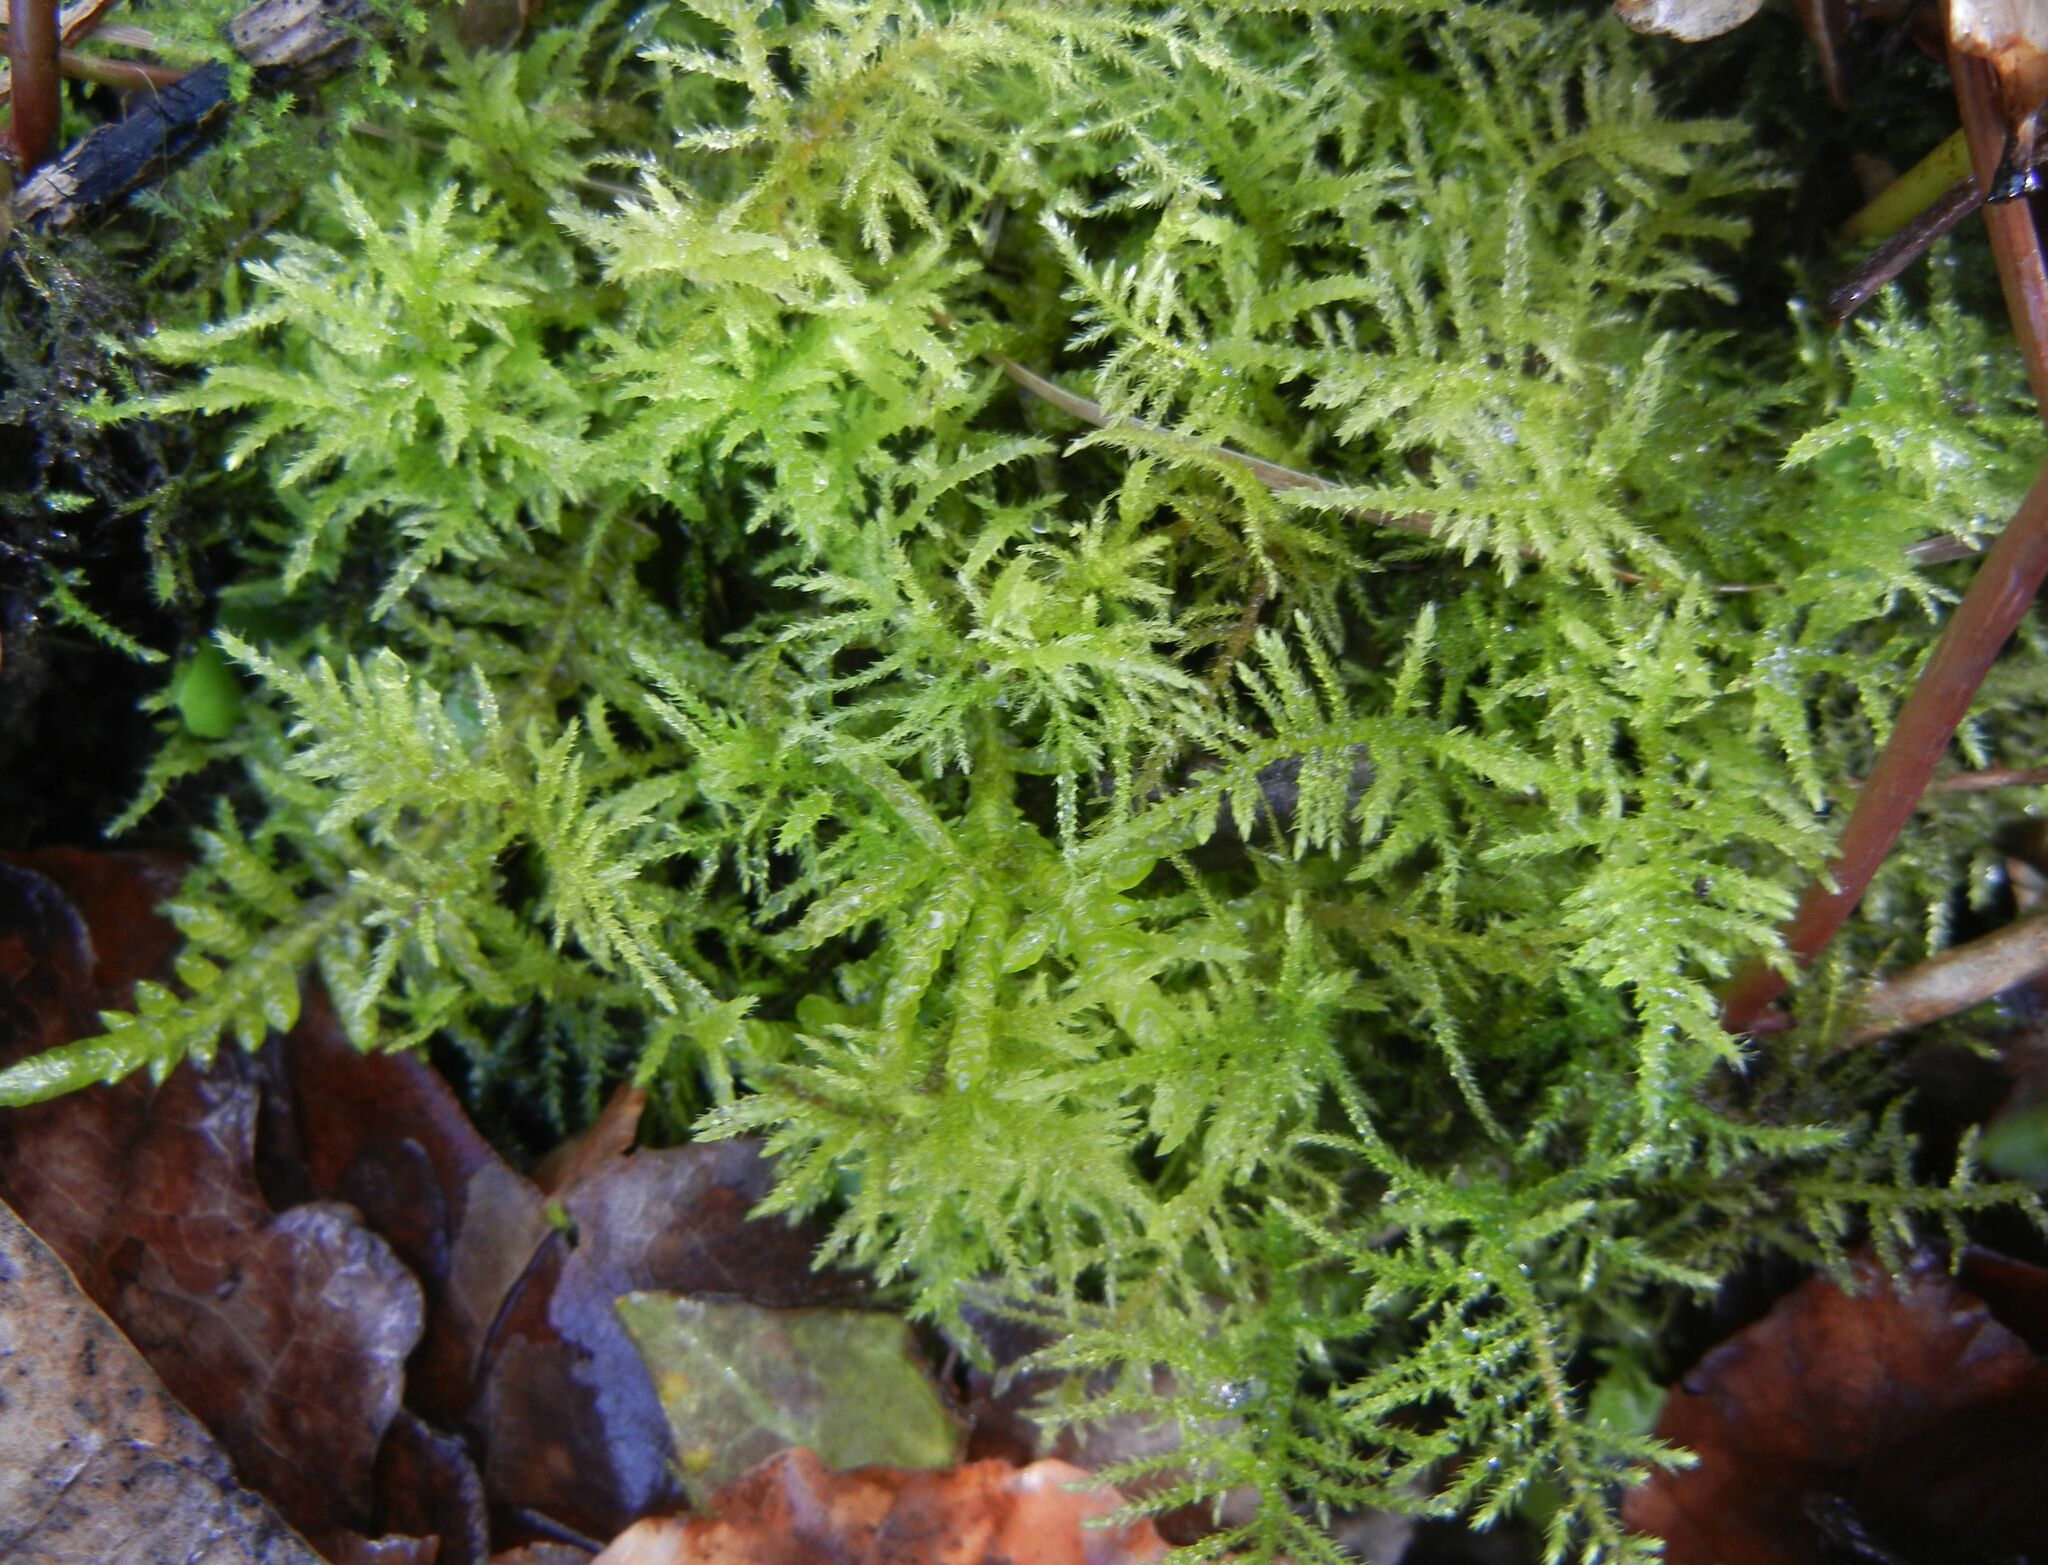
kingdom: Plantae
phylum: Bryophyta
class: Bryopsida
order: Hypnales
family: Brachytheciaceae
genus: Kindbergia
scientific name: Kindbergia praelonga
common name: Slender beaked moss
